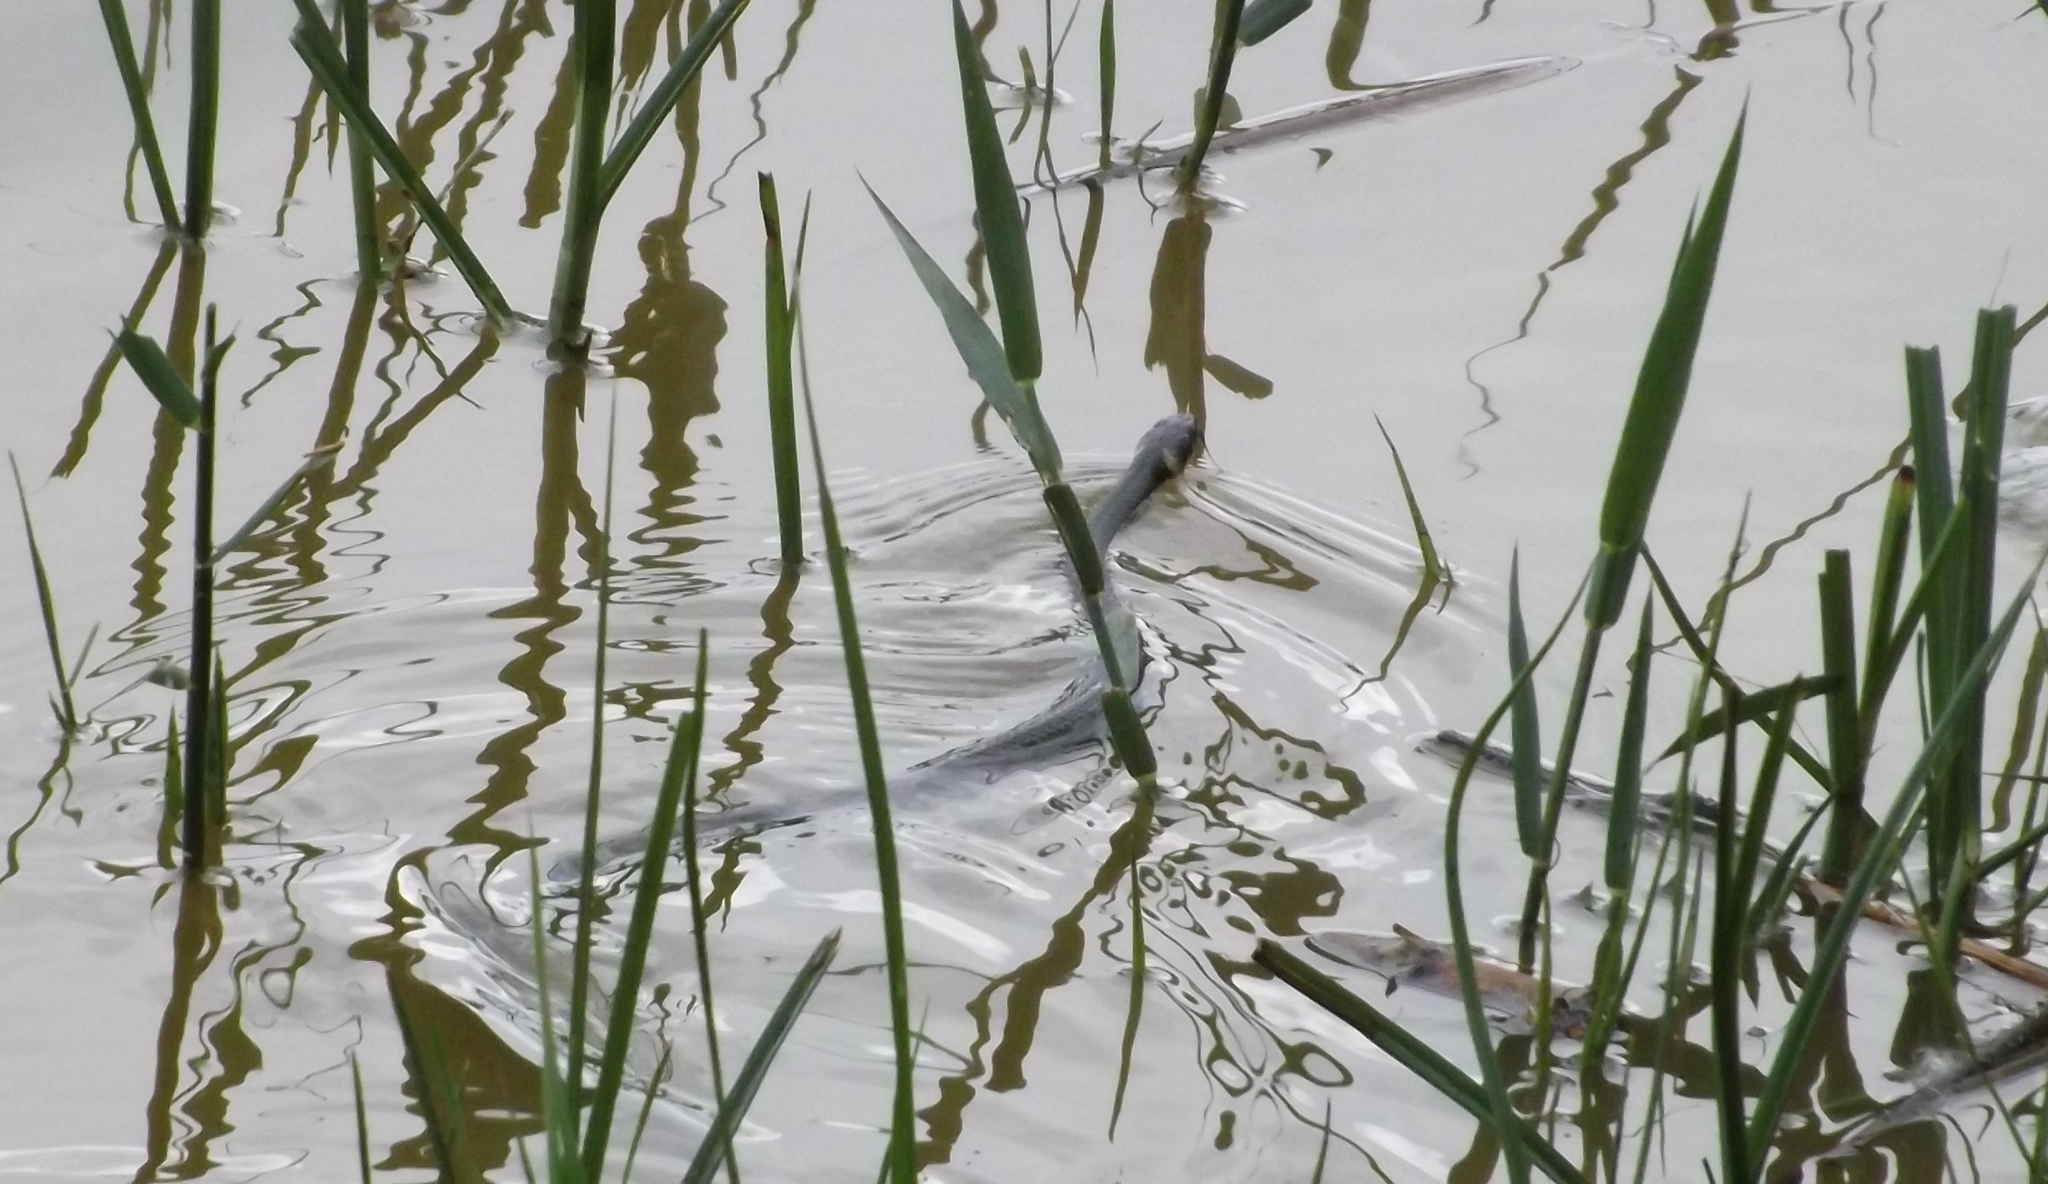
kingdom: Animalia
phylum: Chordata
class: Squamata
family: Colubridae
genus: Natrix
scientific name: Natrix natrix
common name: Grass snake
